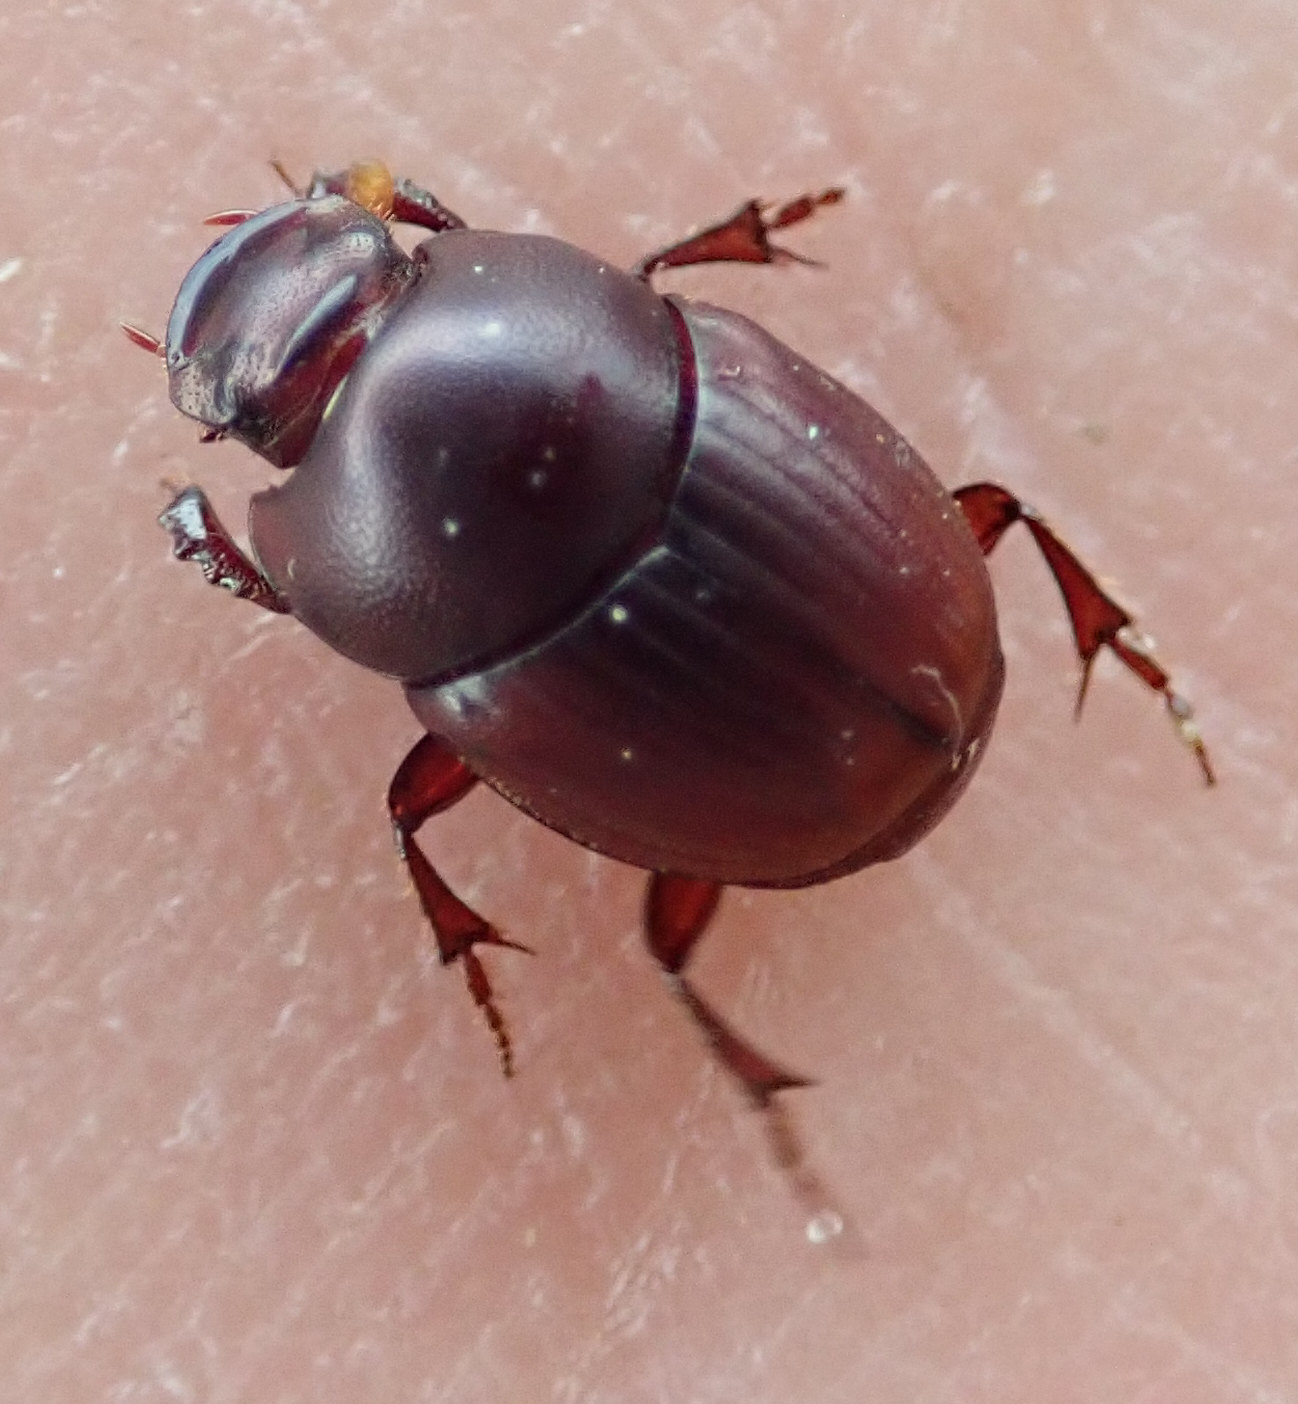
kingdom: Animalia
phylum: Arthropoda
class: Insecta
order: Coleoptera
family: Scarabaeidae
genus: Caccobius
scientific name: Caccobius ferrugineus
